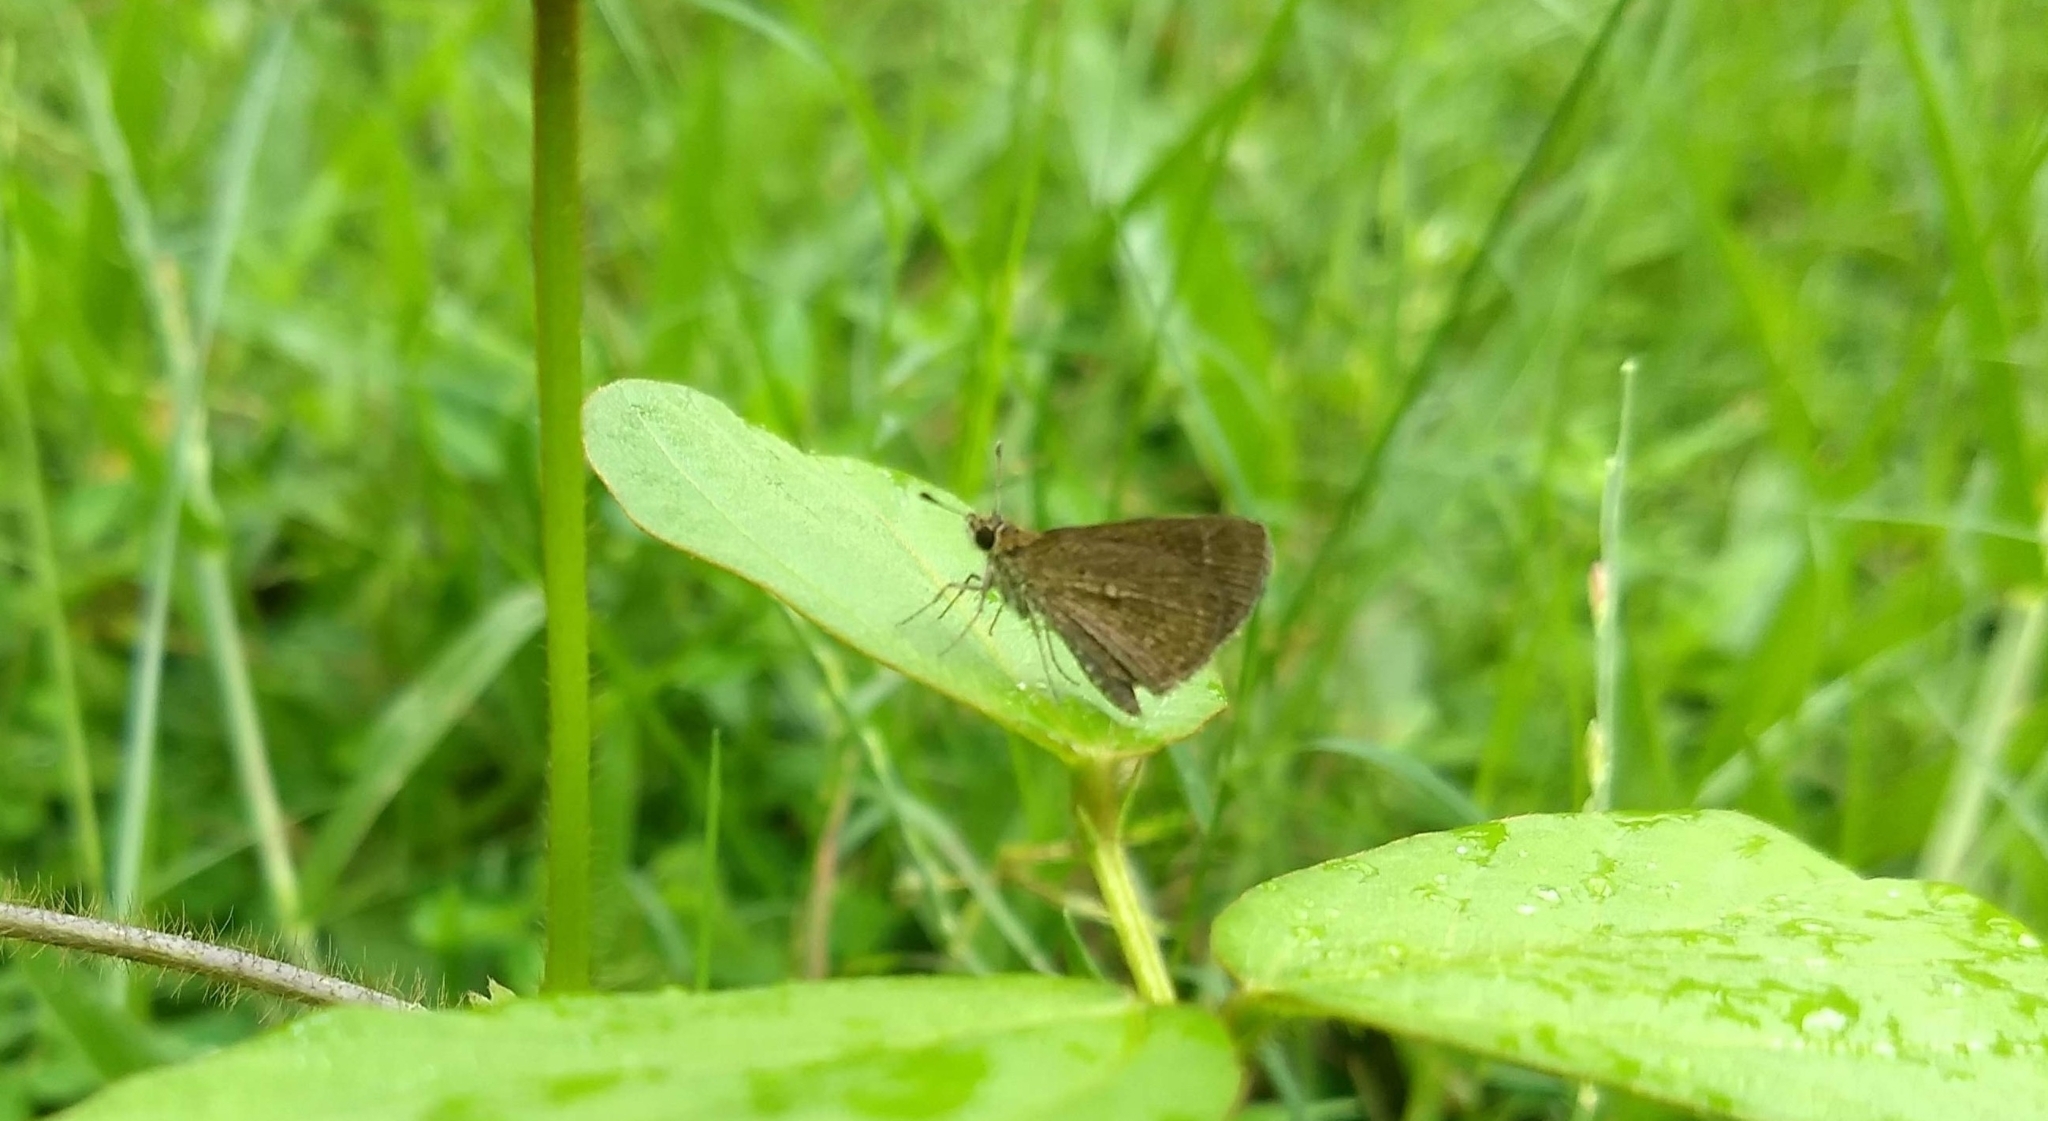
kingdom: Animalia
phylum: Arthropoda
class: Insecta
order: Lepidoptera
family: Hesperiidae
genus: Aeromachus
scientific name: Aeromachus pygmaeus
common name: Pygmy scrub hopper
